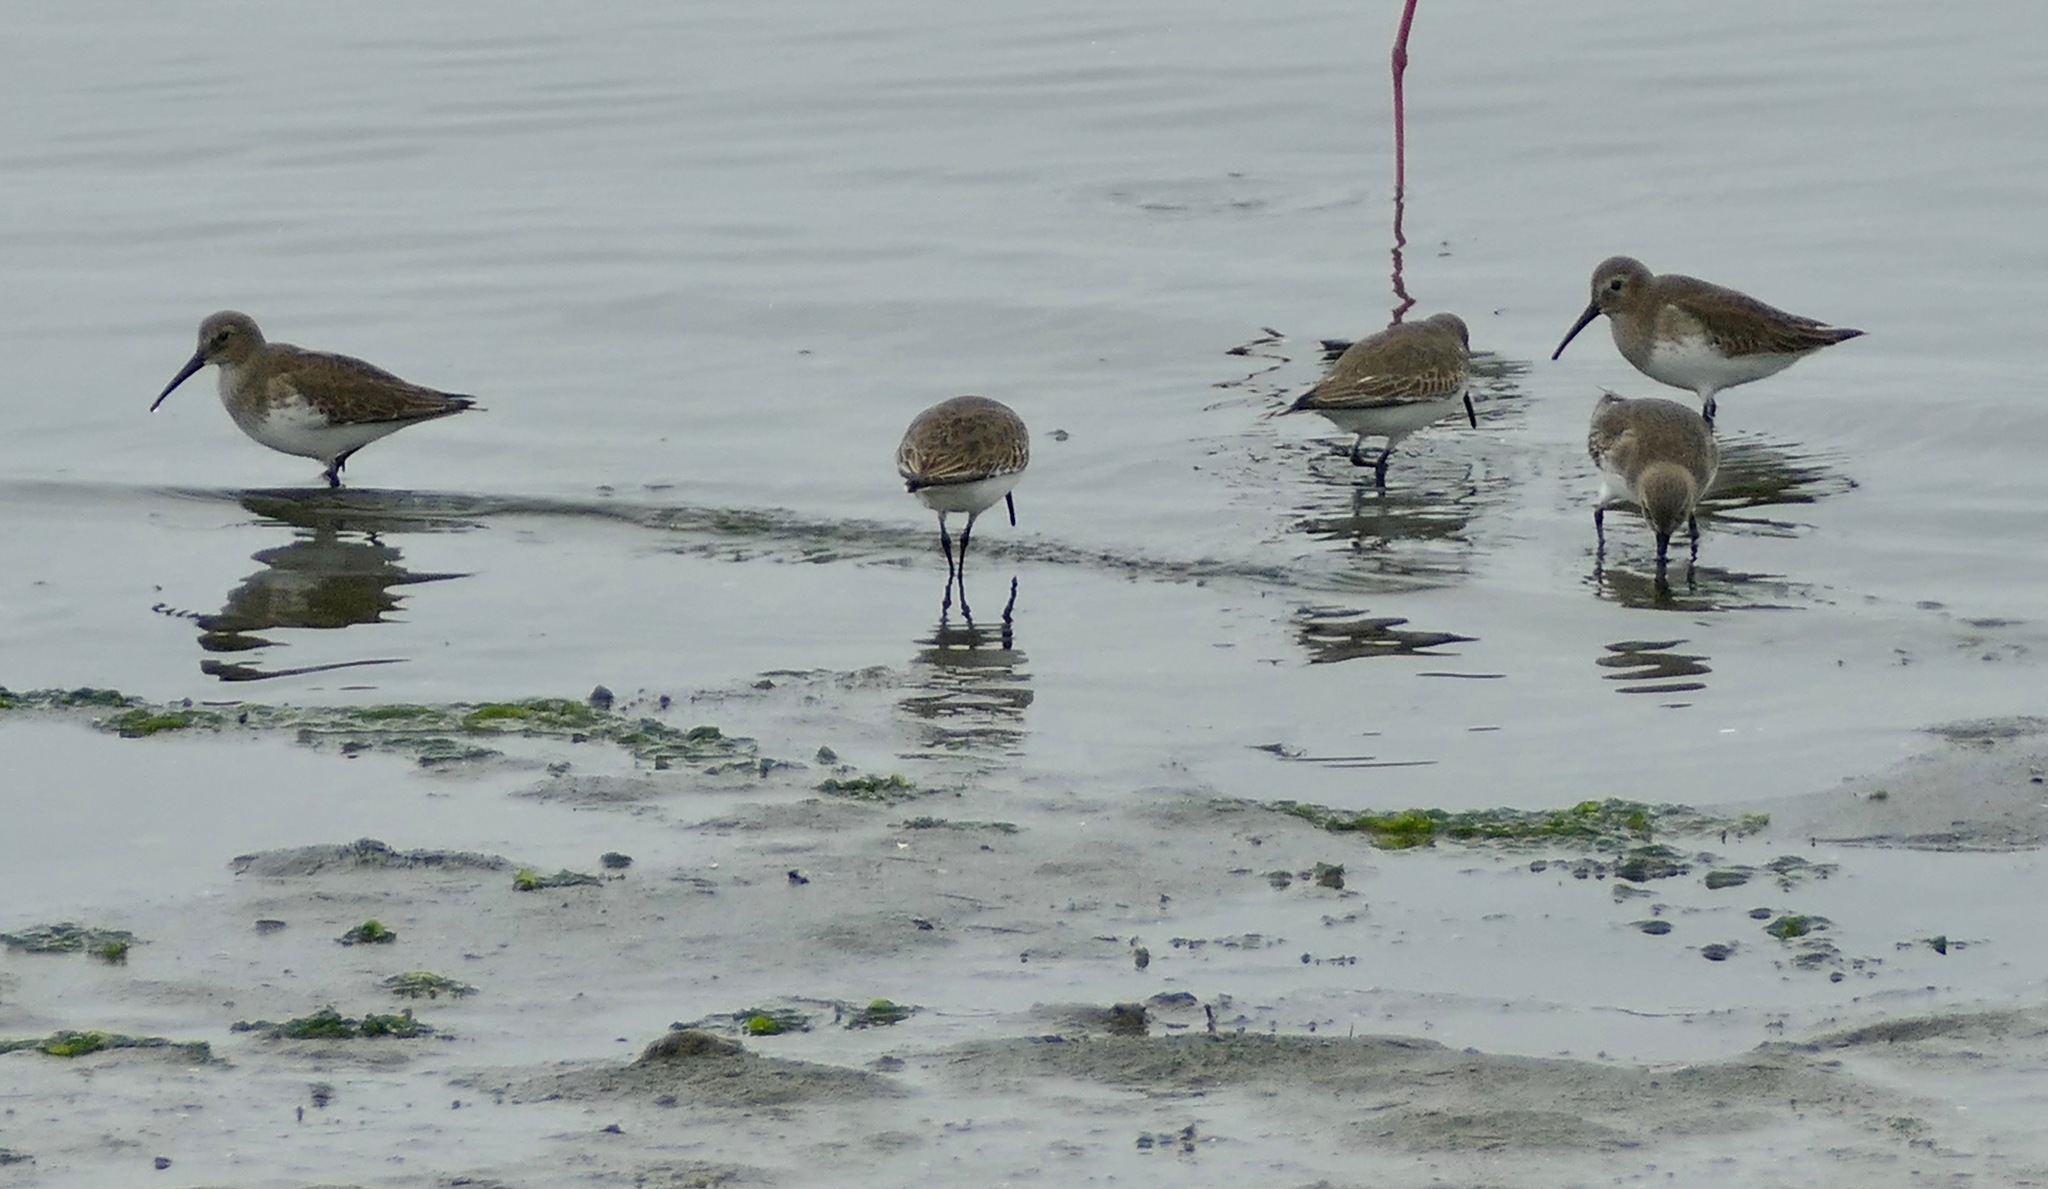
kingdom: Animalia
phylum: Chordata
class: Aves
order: Charadriiformes
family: Scolopacidae
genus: Calidris
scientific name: Calidris alpina
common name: Dunlin
